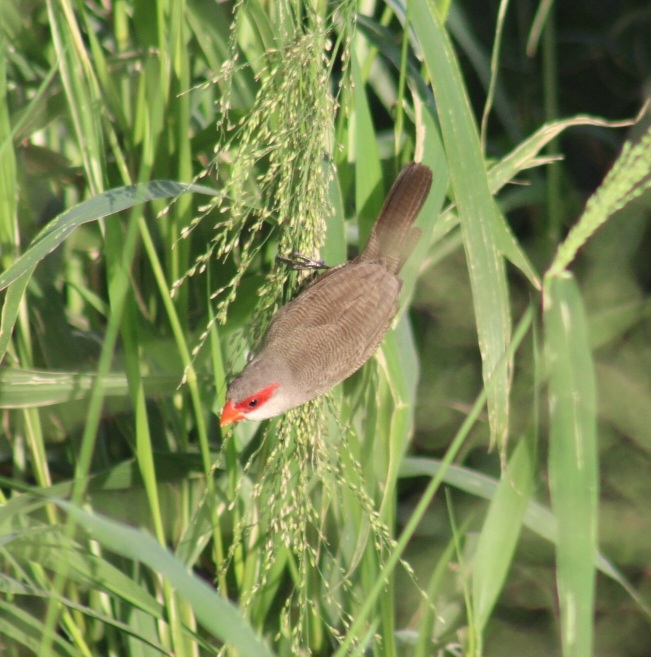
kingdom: Animalia
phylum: Chordata
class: Aves
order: Passeriformes
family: Estrildidae
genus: Estrilda
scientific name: Estrilda astrild
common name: Common waxbill
